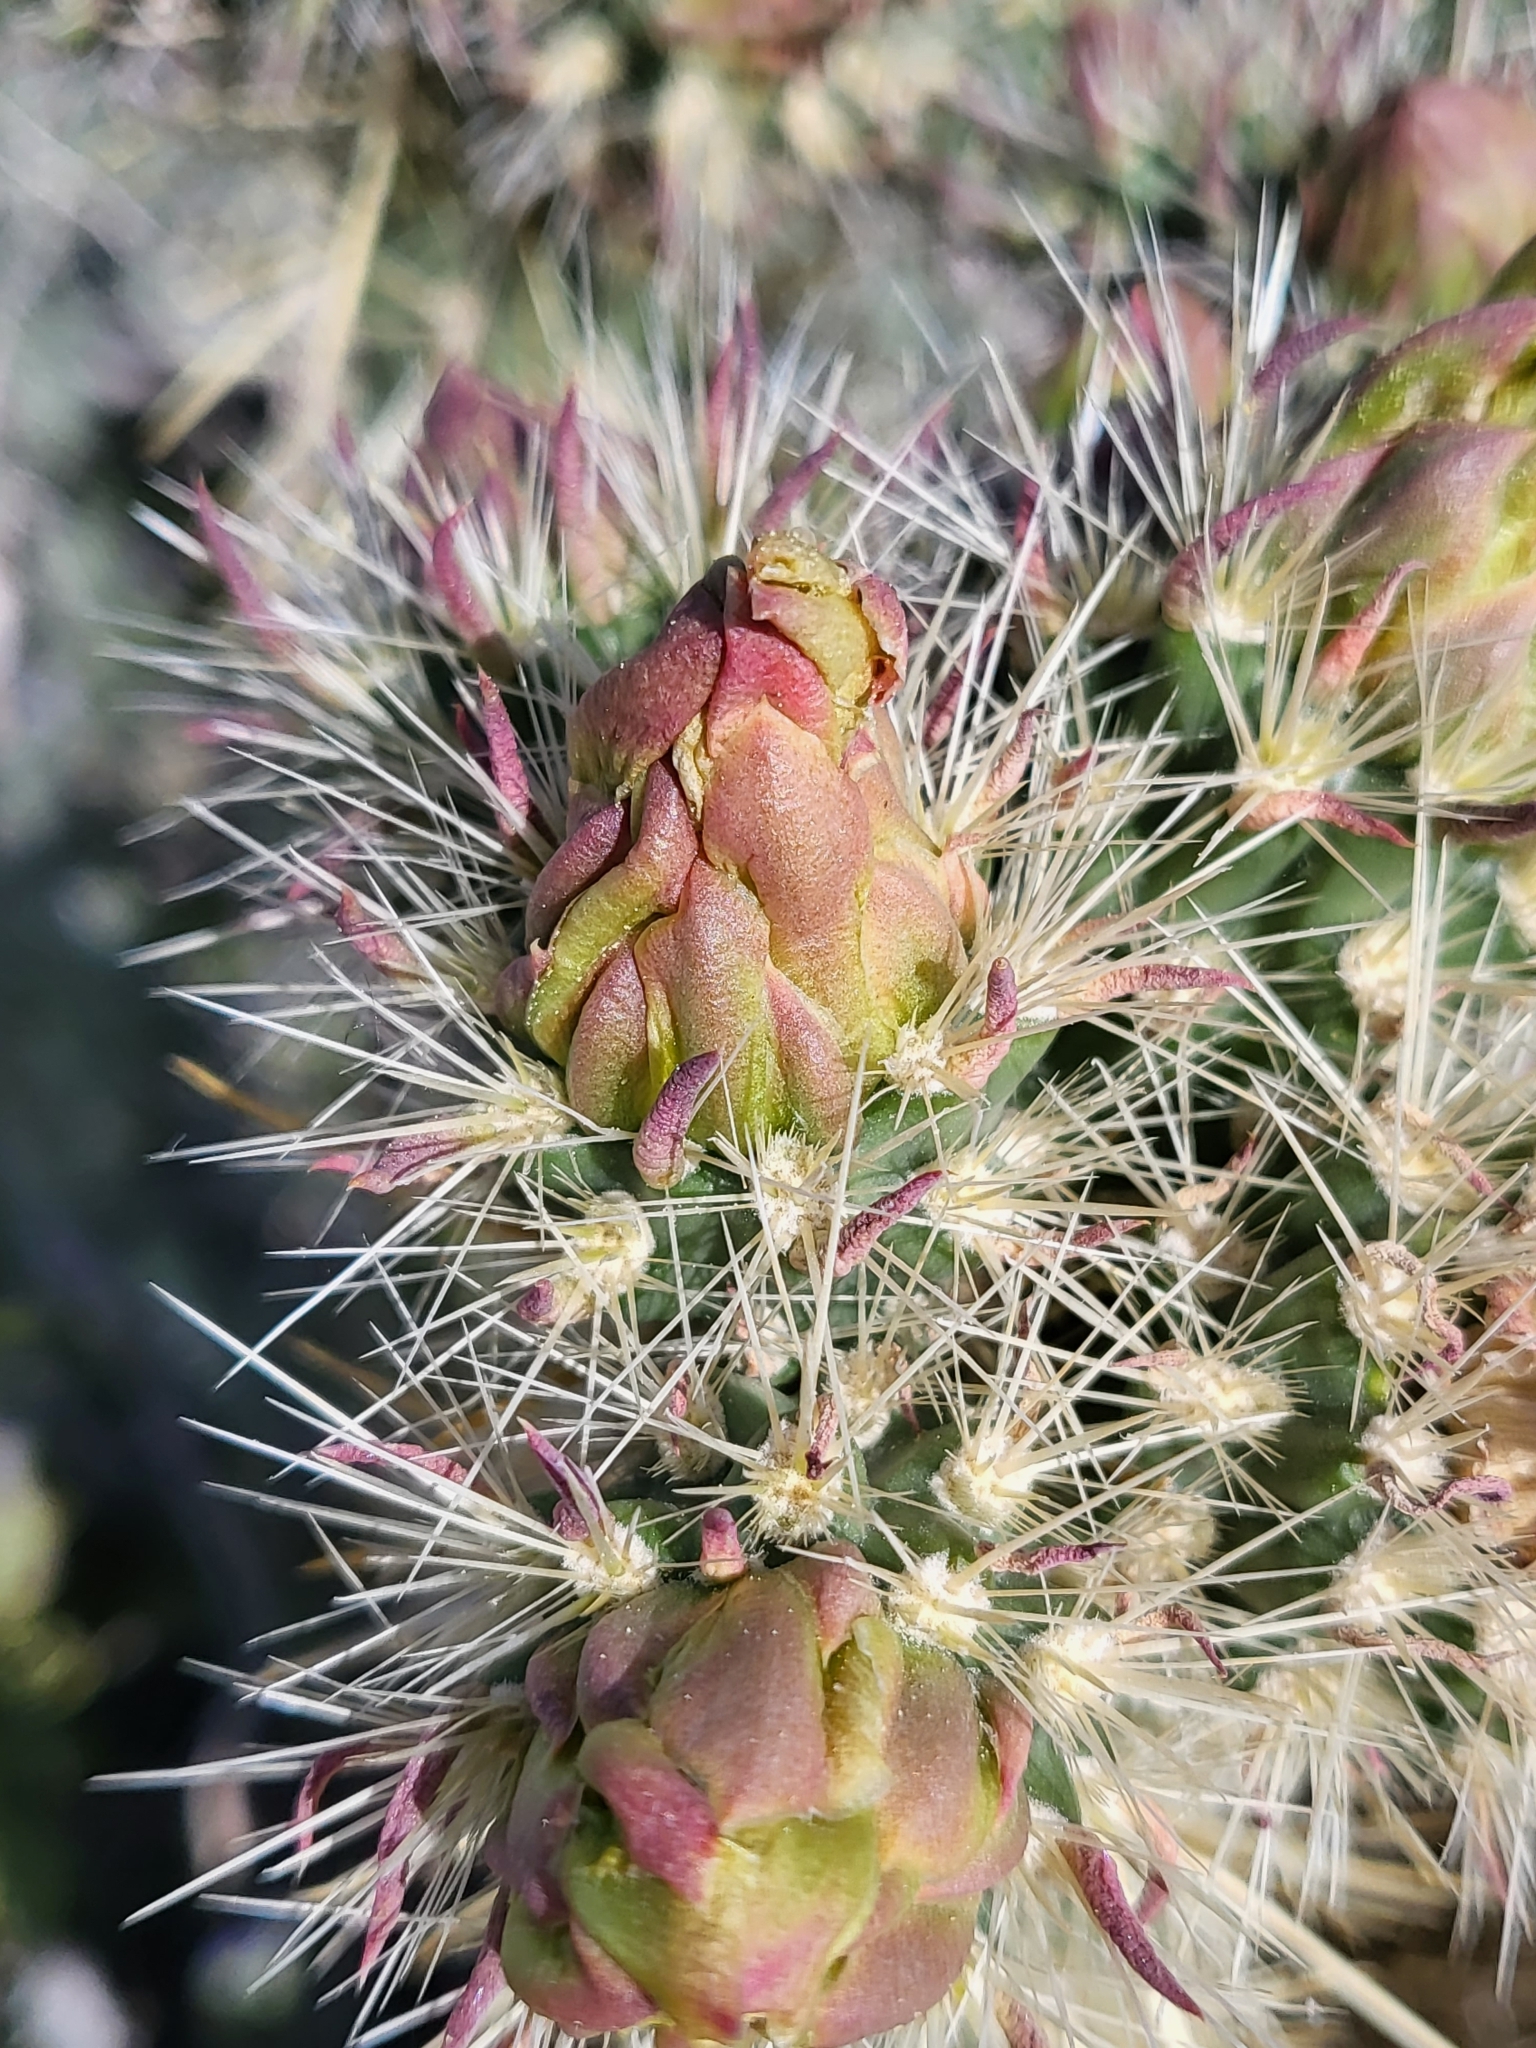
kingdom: Plantae
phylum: Tracheophyta
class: Magnoliopsida
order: Caryophyllales
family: Cactaceae
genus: Cylindropuntia
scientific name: Cylindropuntia ganderi
